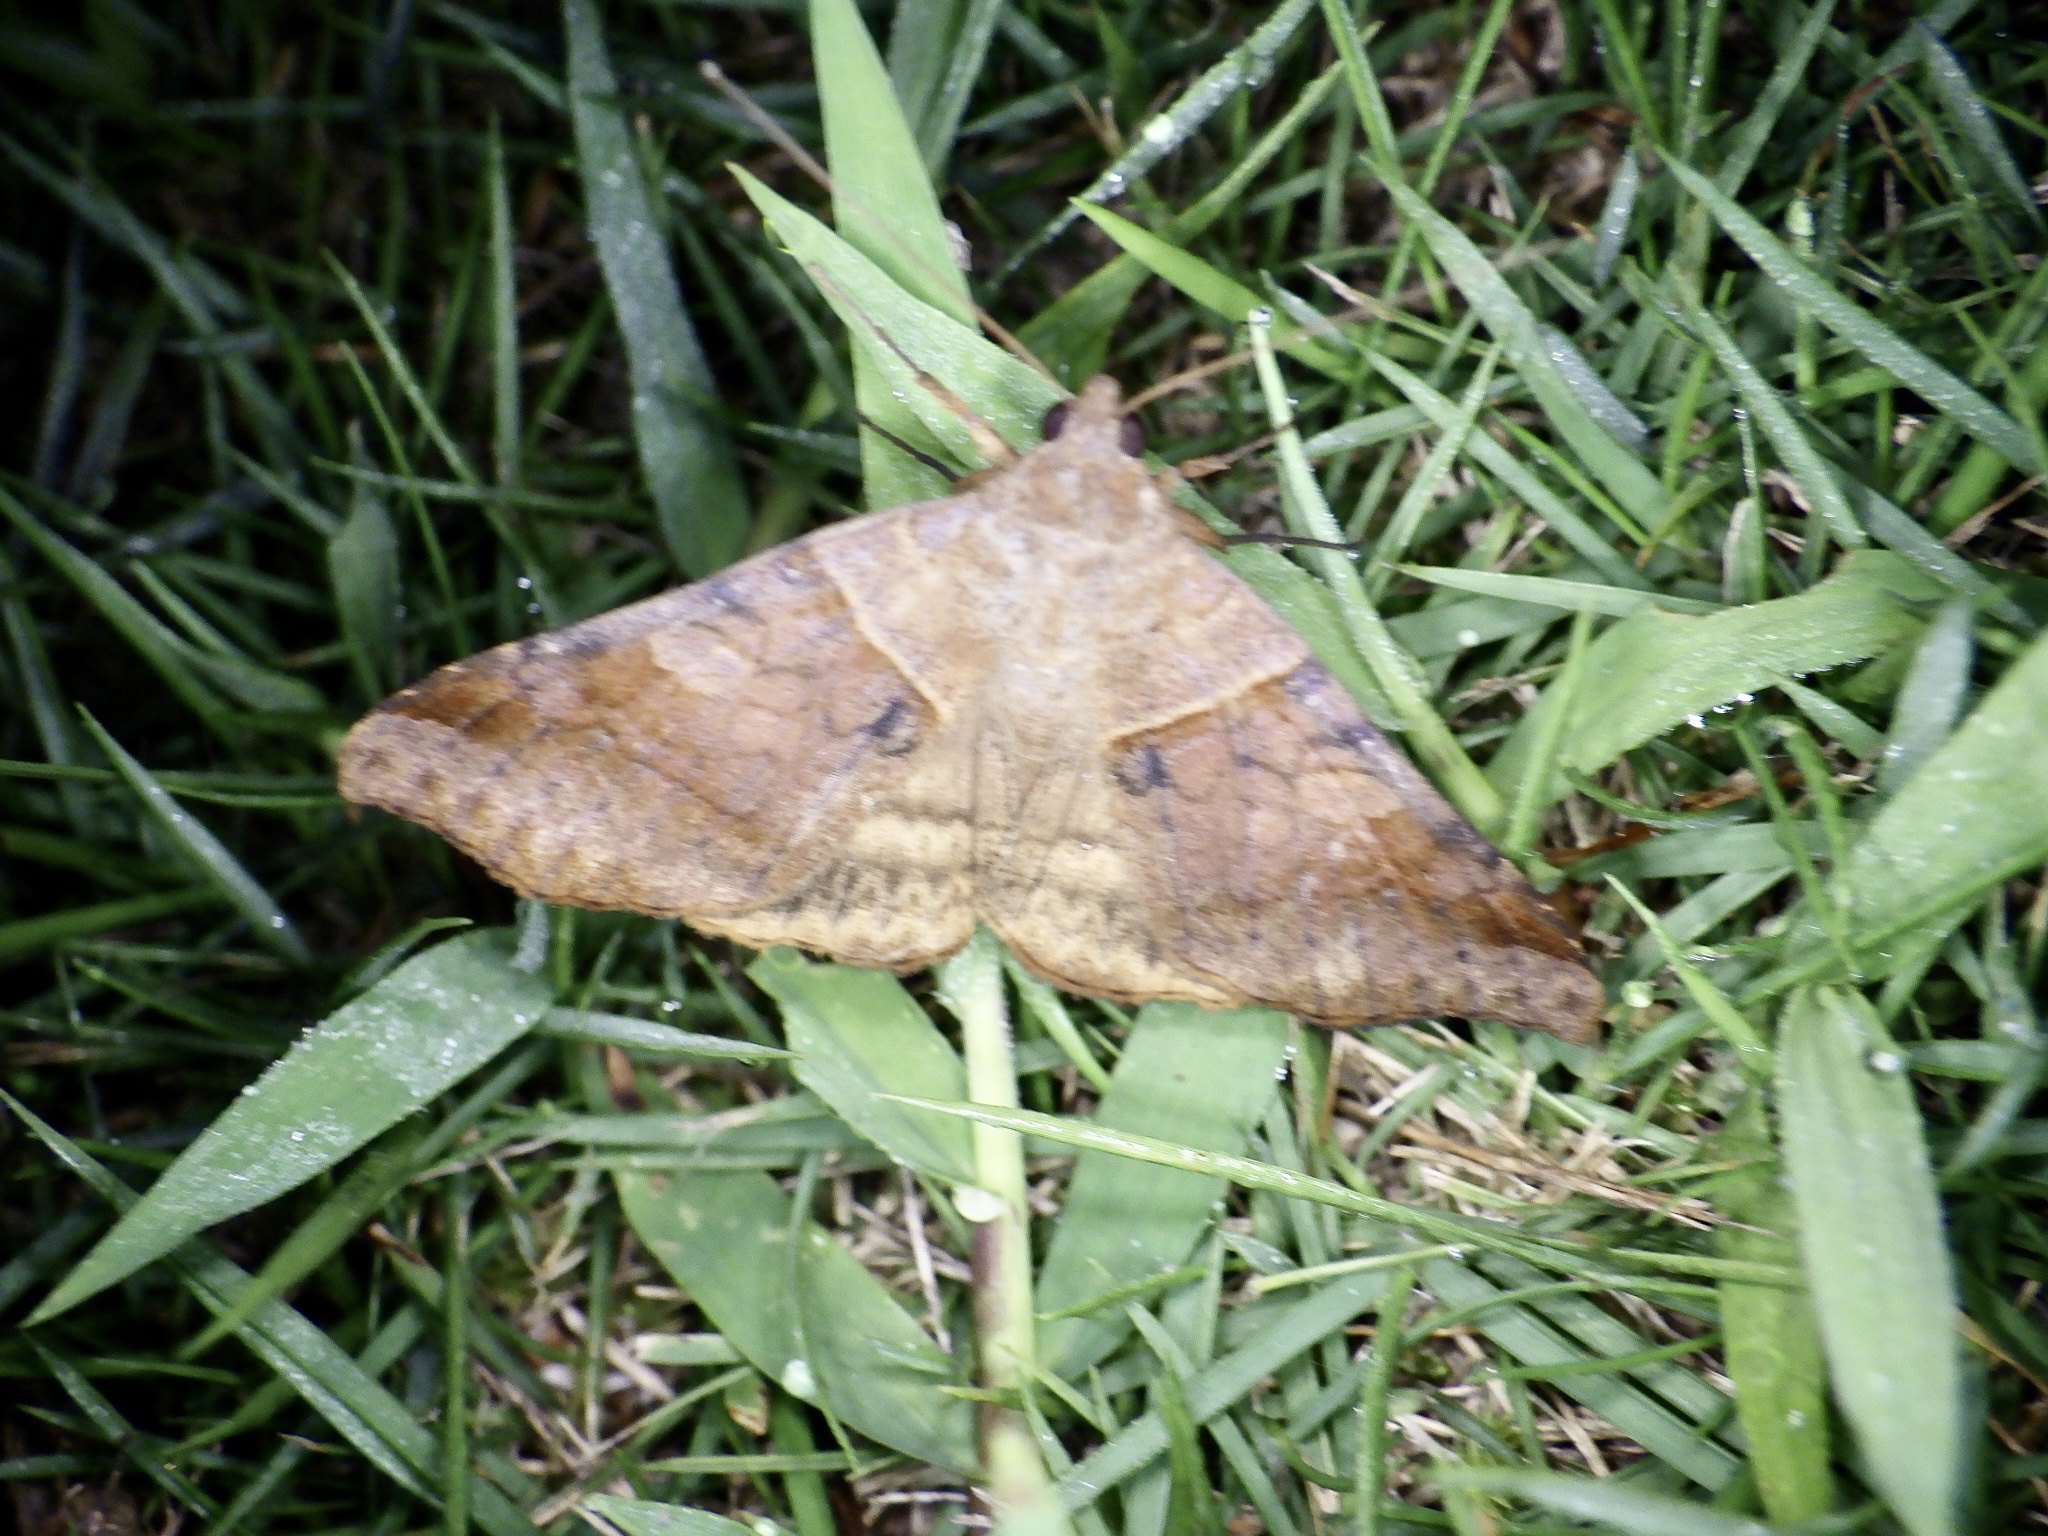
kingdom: Animalia
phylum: Arthropoda
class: Insecta
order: Lepidoptera
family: Erebidae
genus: Mocis
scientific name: Mocis undata
